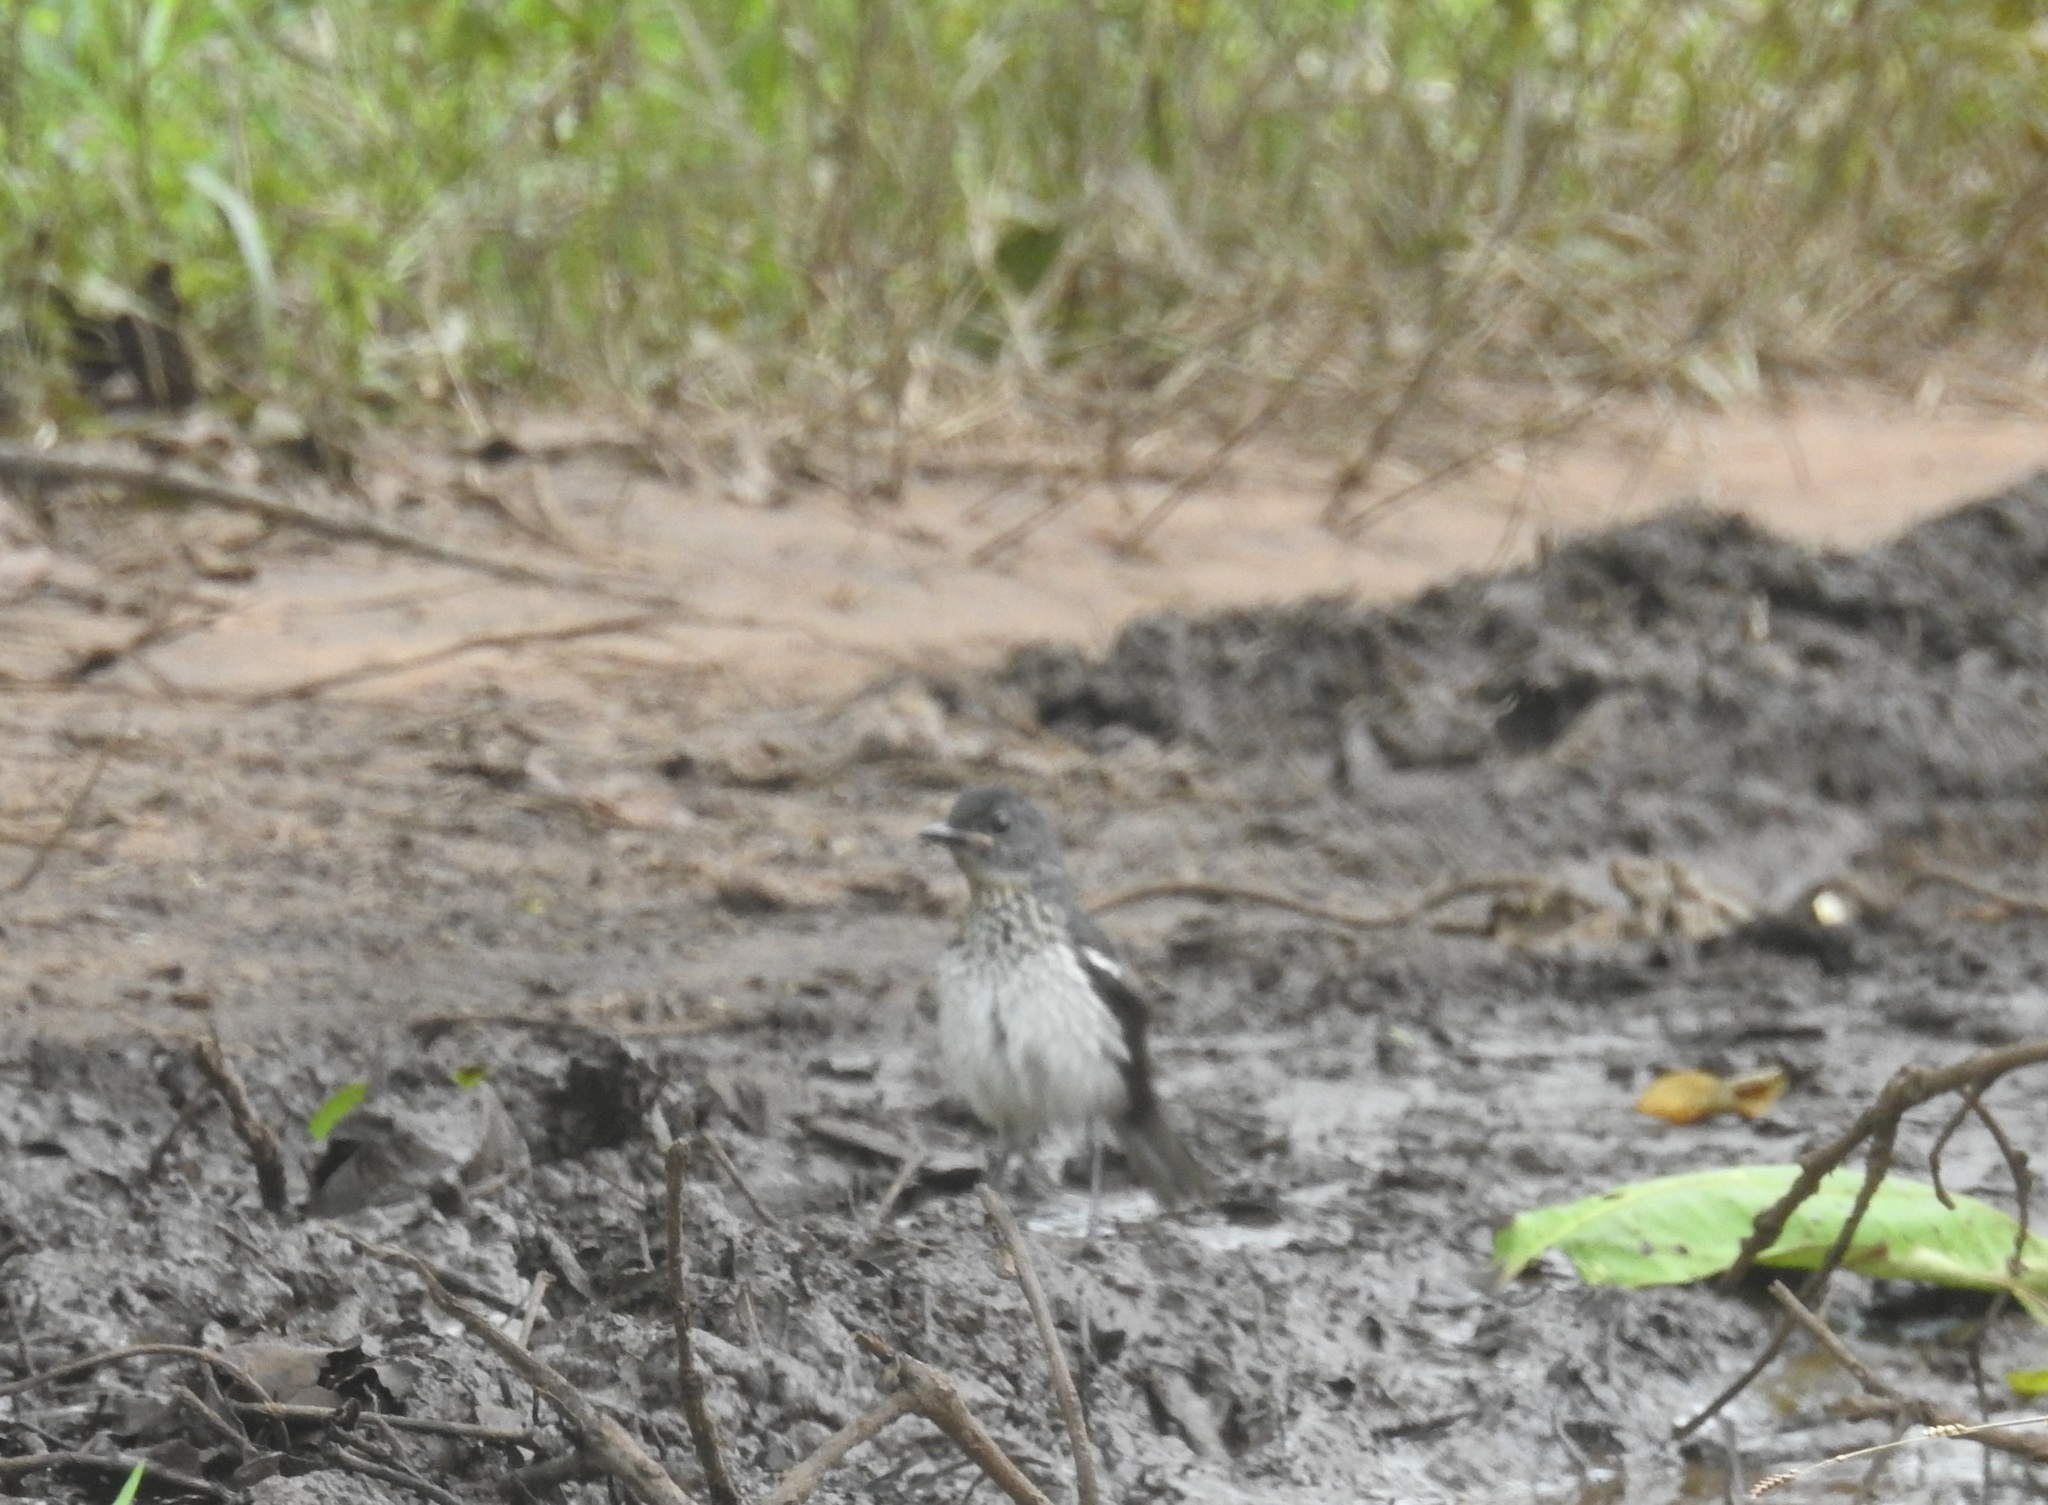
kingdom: Animalia
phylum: Chordata
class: Aves
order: Passeriformes
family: Muscicapidae
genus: Copsychus
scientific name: Copsychus saularis
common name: Oriental magpie-robin
